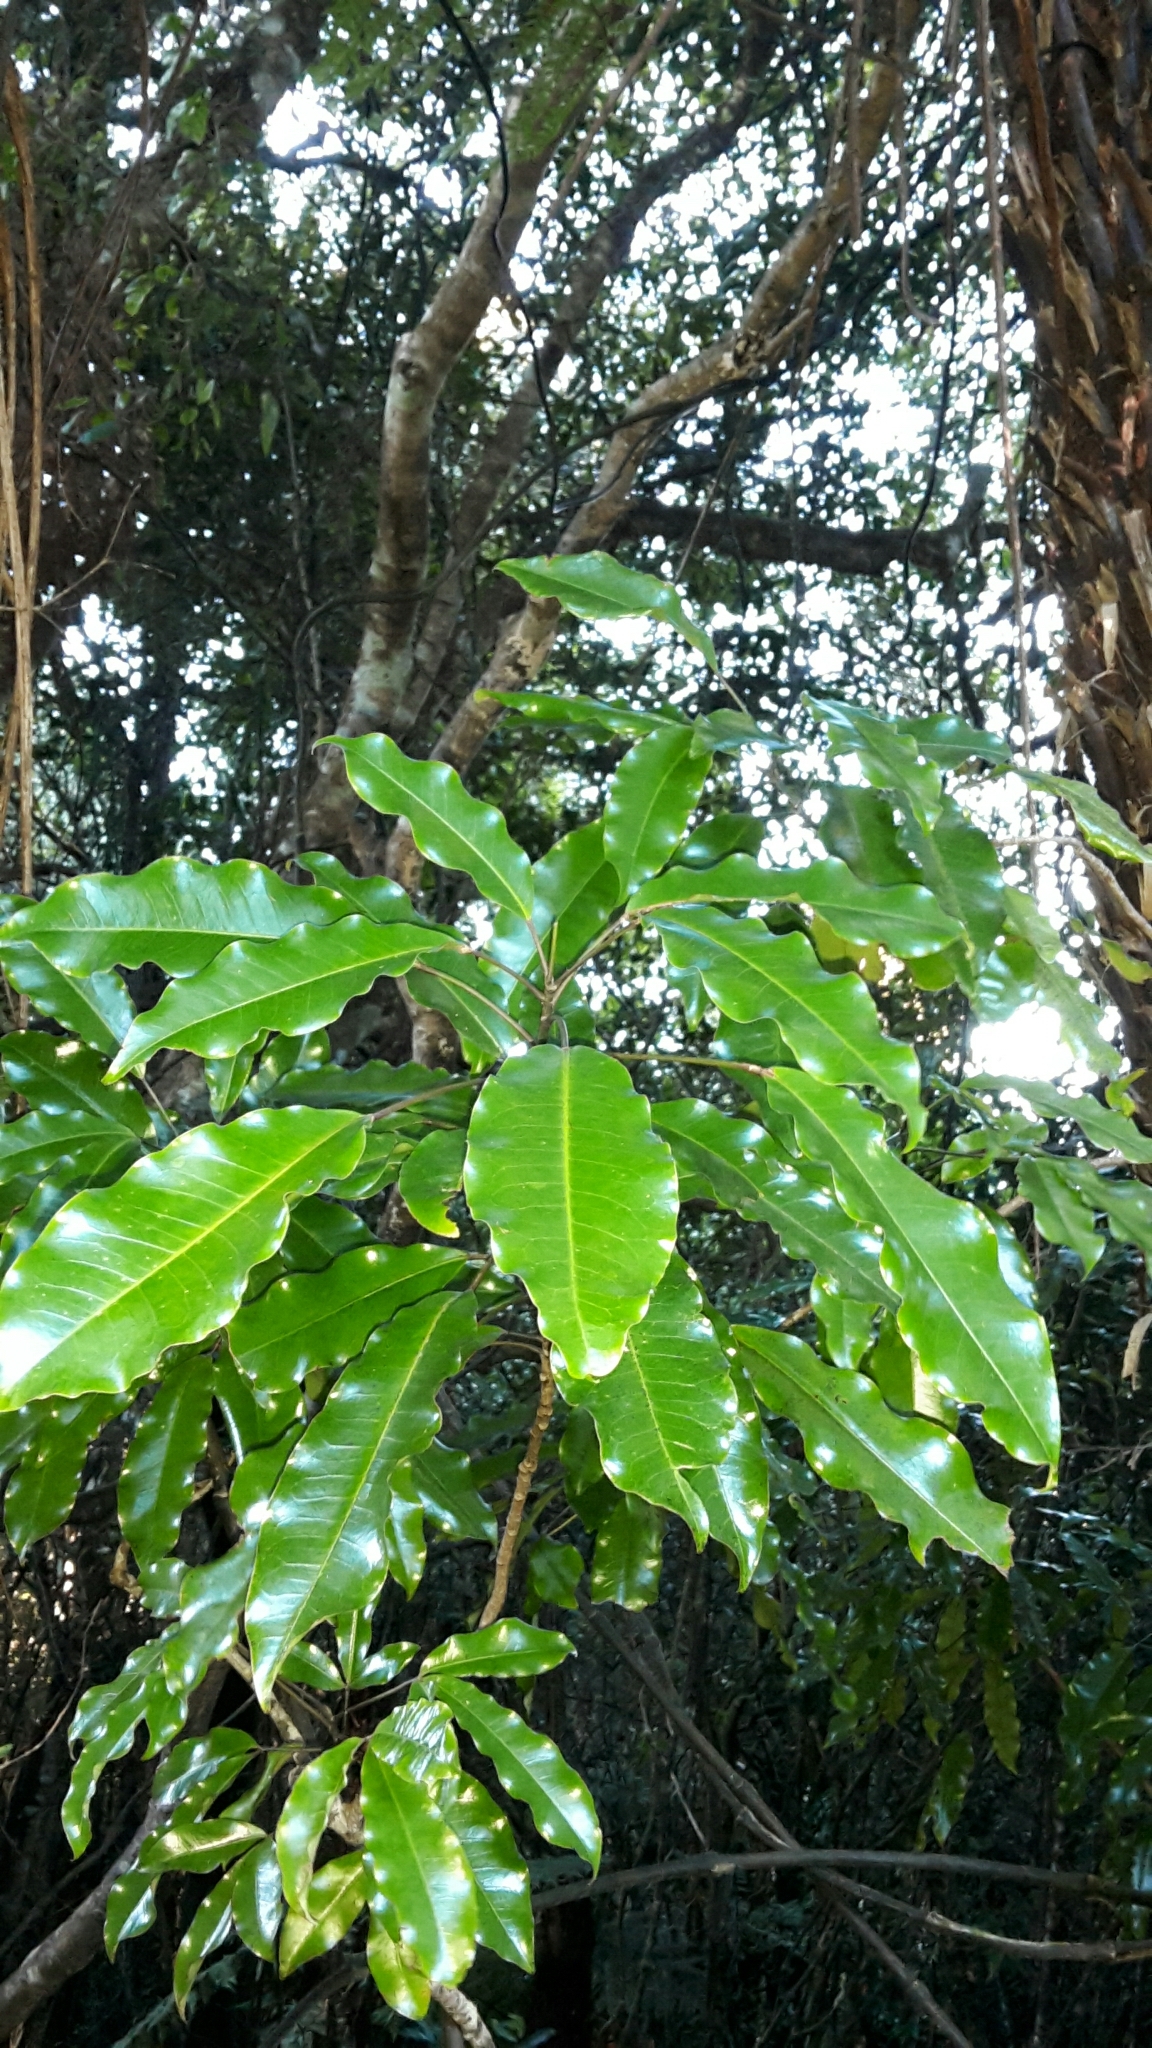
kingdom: Plantae
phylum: Tracheophyta
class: Magnoliopsida
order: Apiales
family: Araliaceae
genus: Raukaua
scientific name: Raukaua edgerleyi
